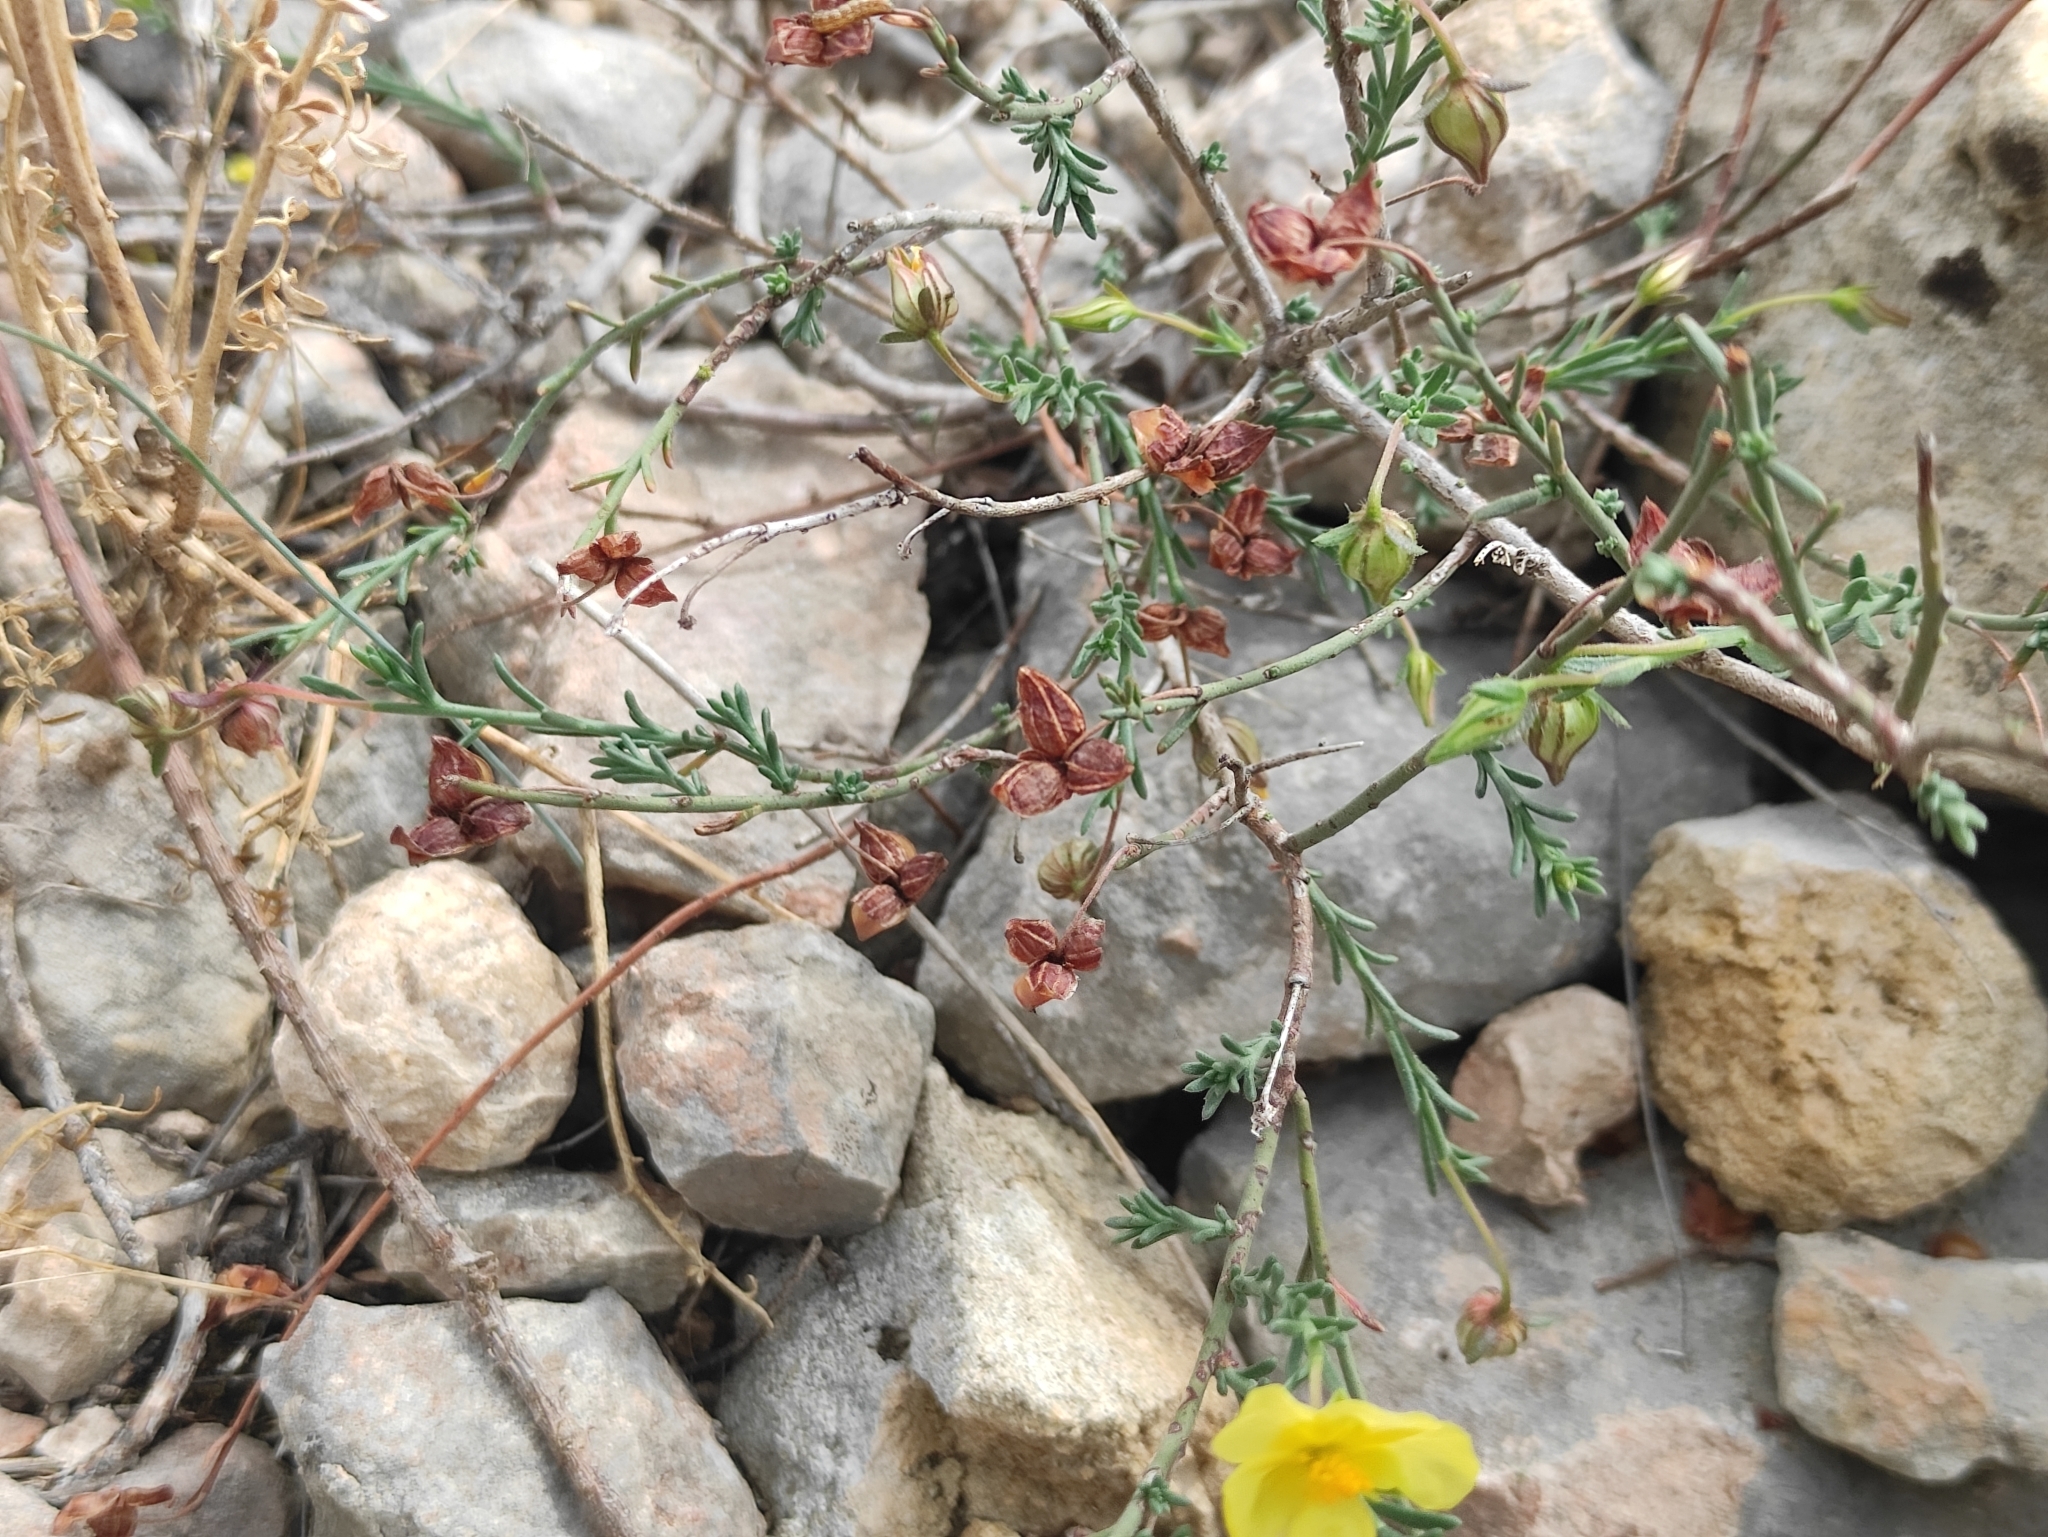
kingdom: Plantae
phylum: Tracheophyta
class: Magnoliopsida
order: Malvales
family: Cistaceae
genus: Fumana
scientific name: Fumana ericifolia
